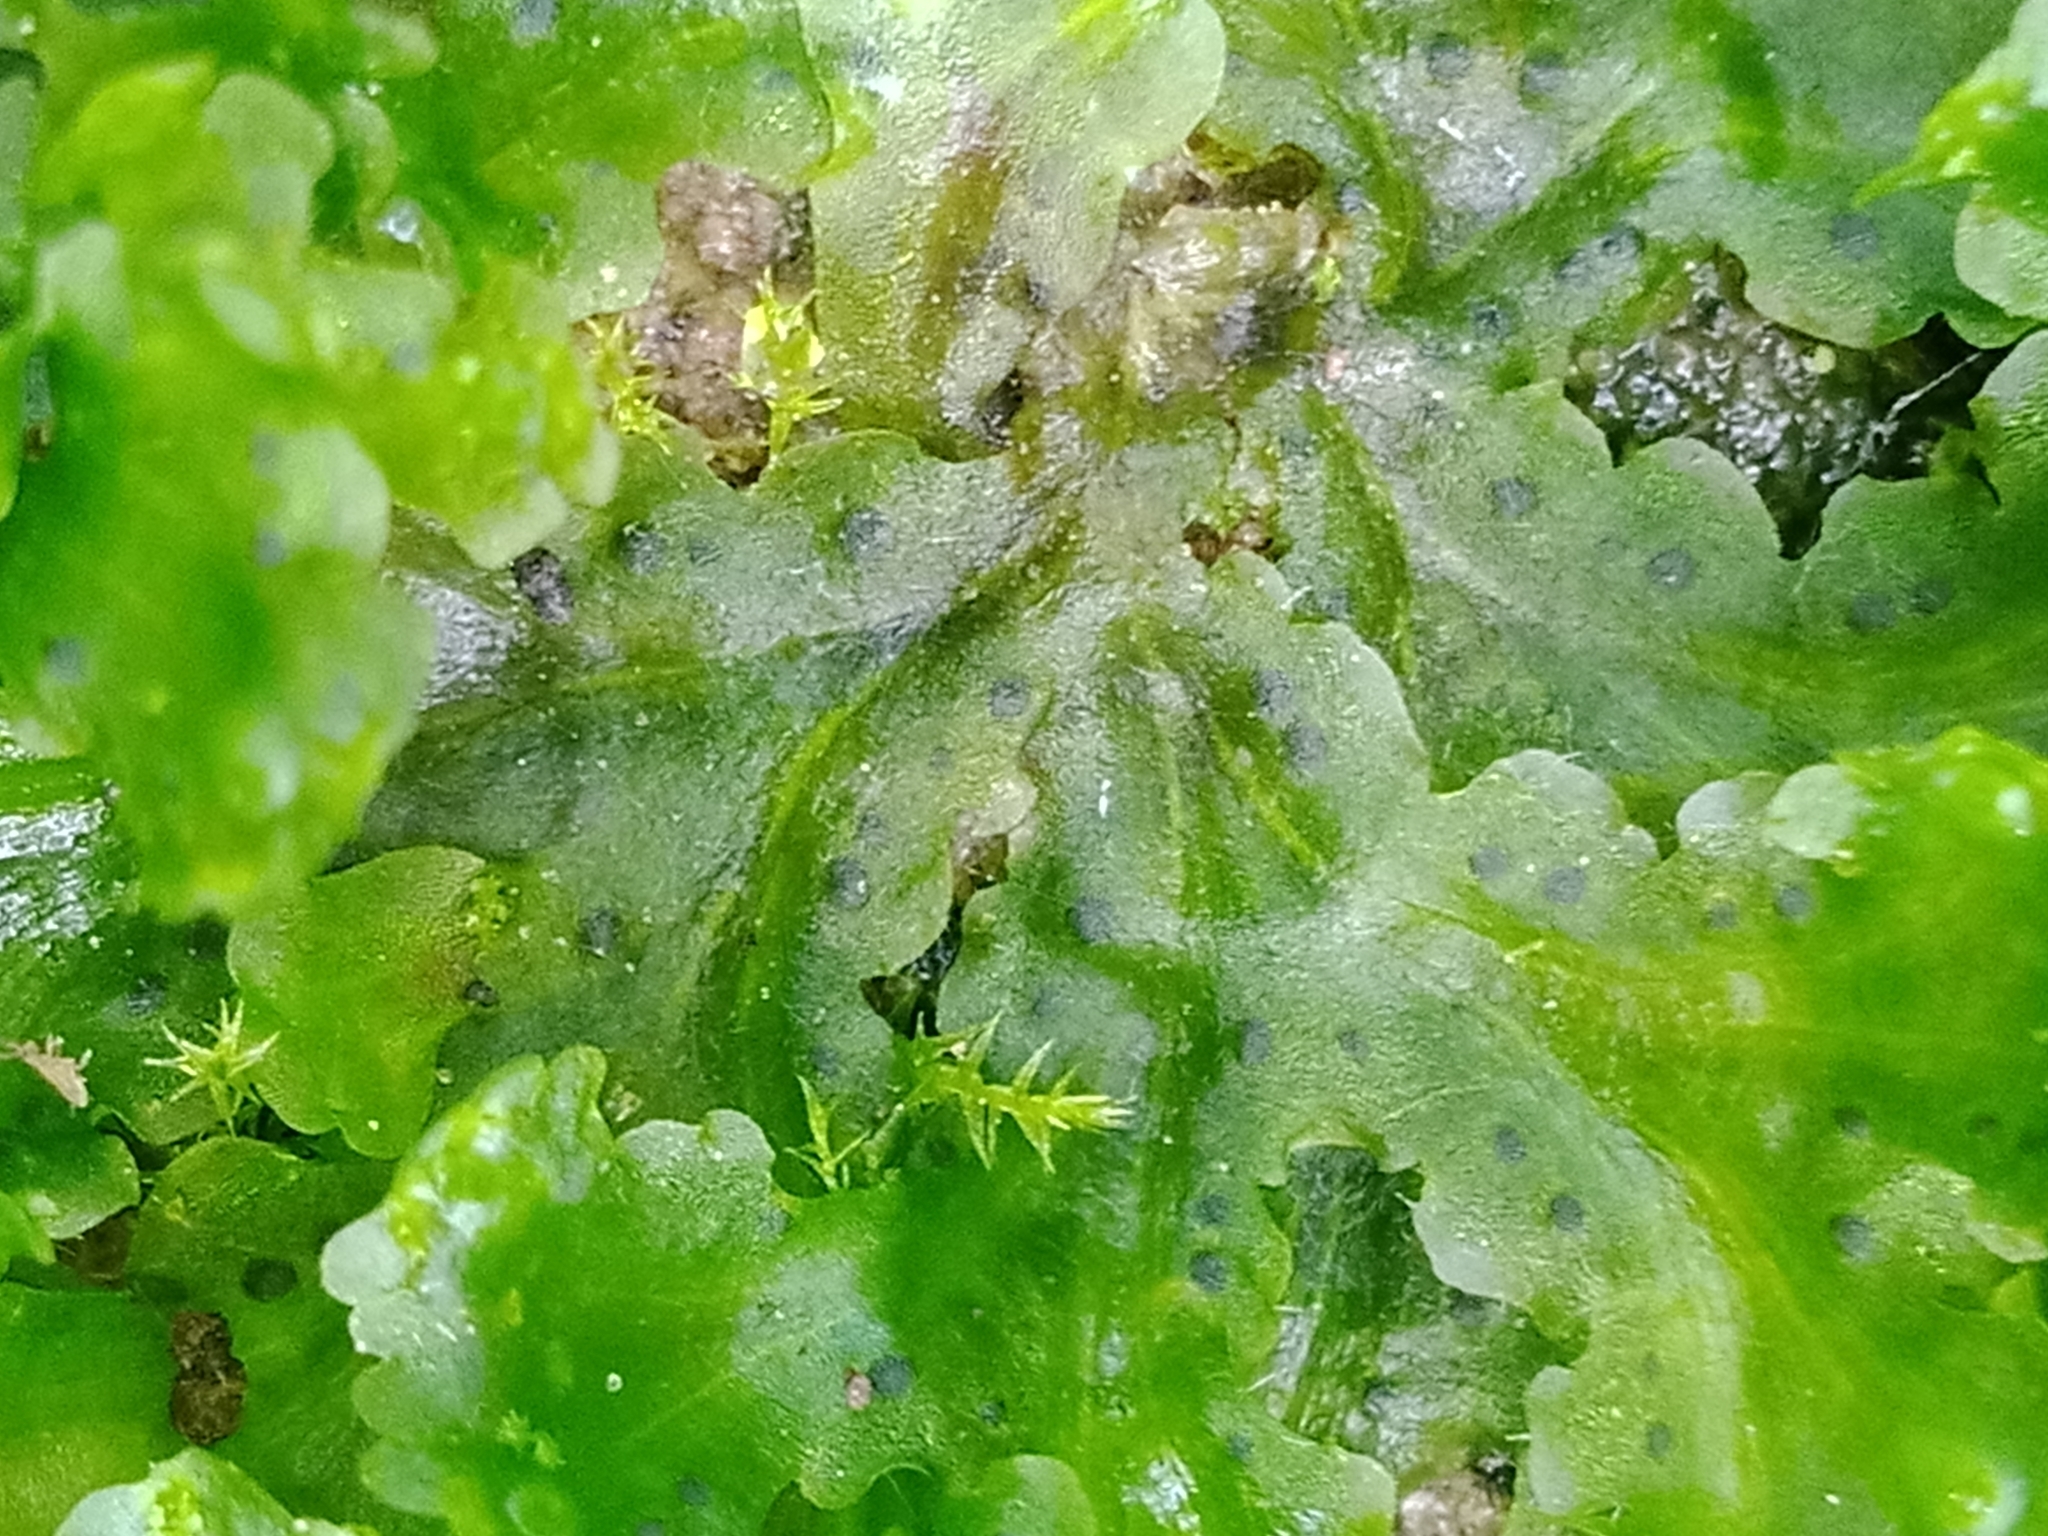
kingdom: Plantae
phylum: Marchantiophyta
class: Marchantiopsida
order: Blasiales
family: Blasiaceae
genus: Blasia
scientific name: Blasia pusilla
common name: Common kettlewort
